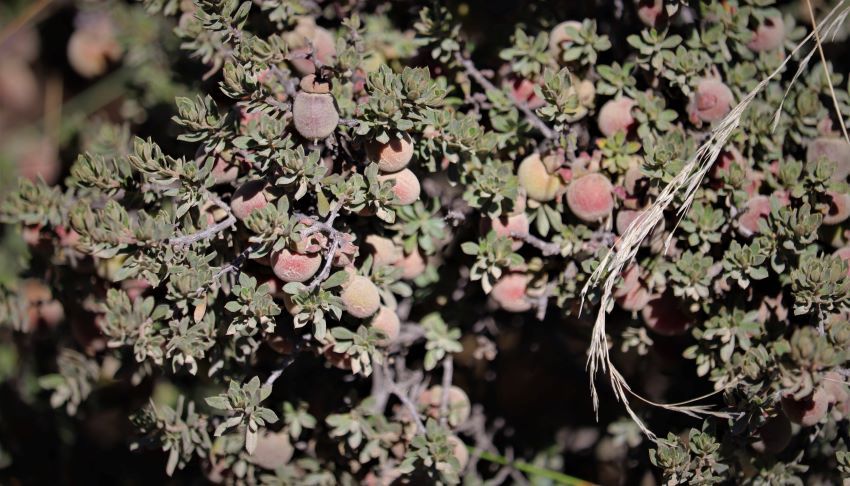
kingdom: Plantae
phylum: Tracheophyta
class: Magnoliopsida
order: Ericales
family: Ebenaceae
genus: Diospyros
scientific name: Diospyros pubescens
